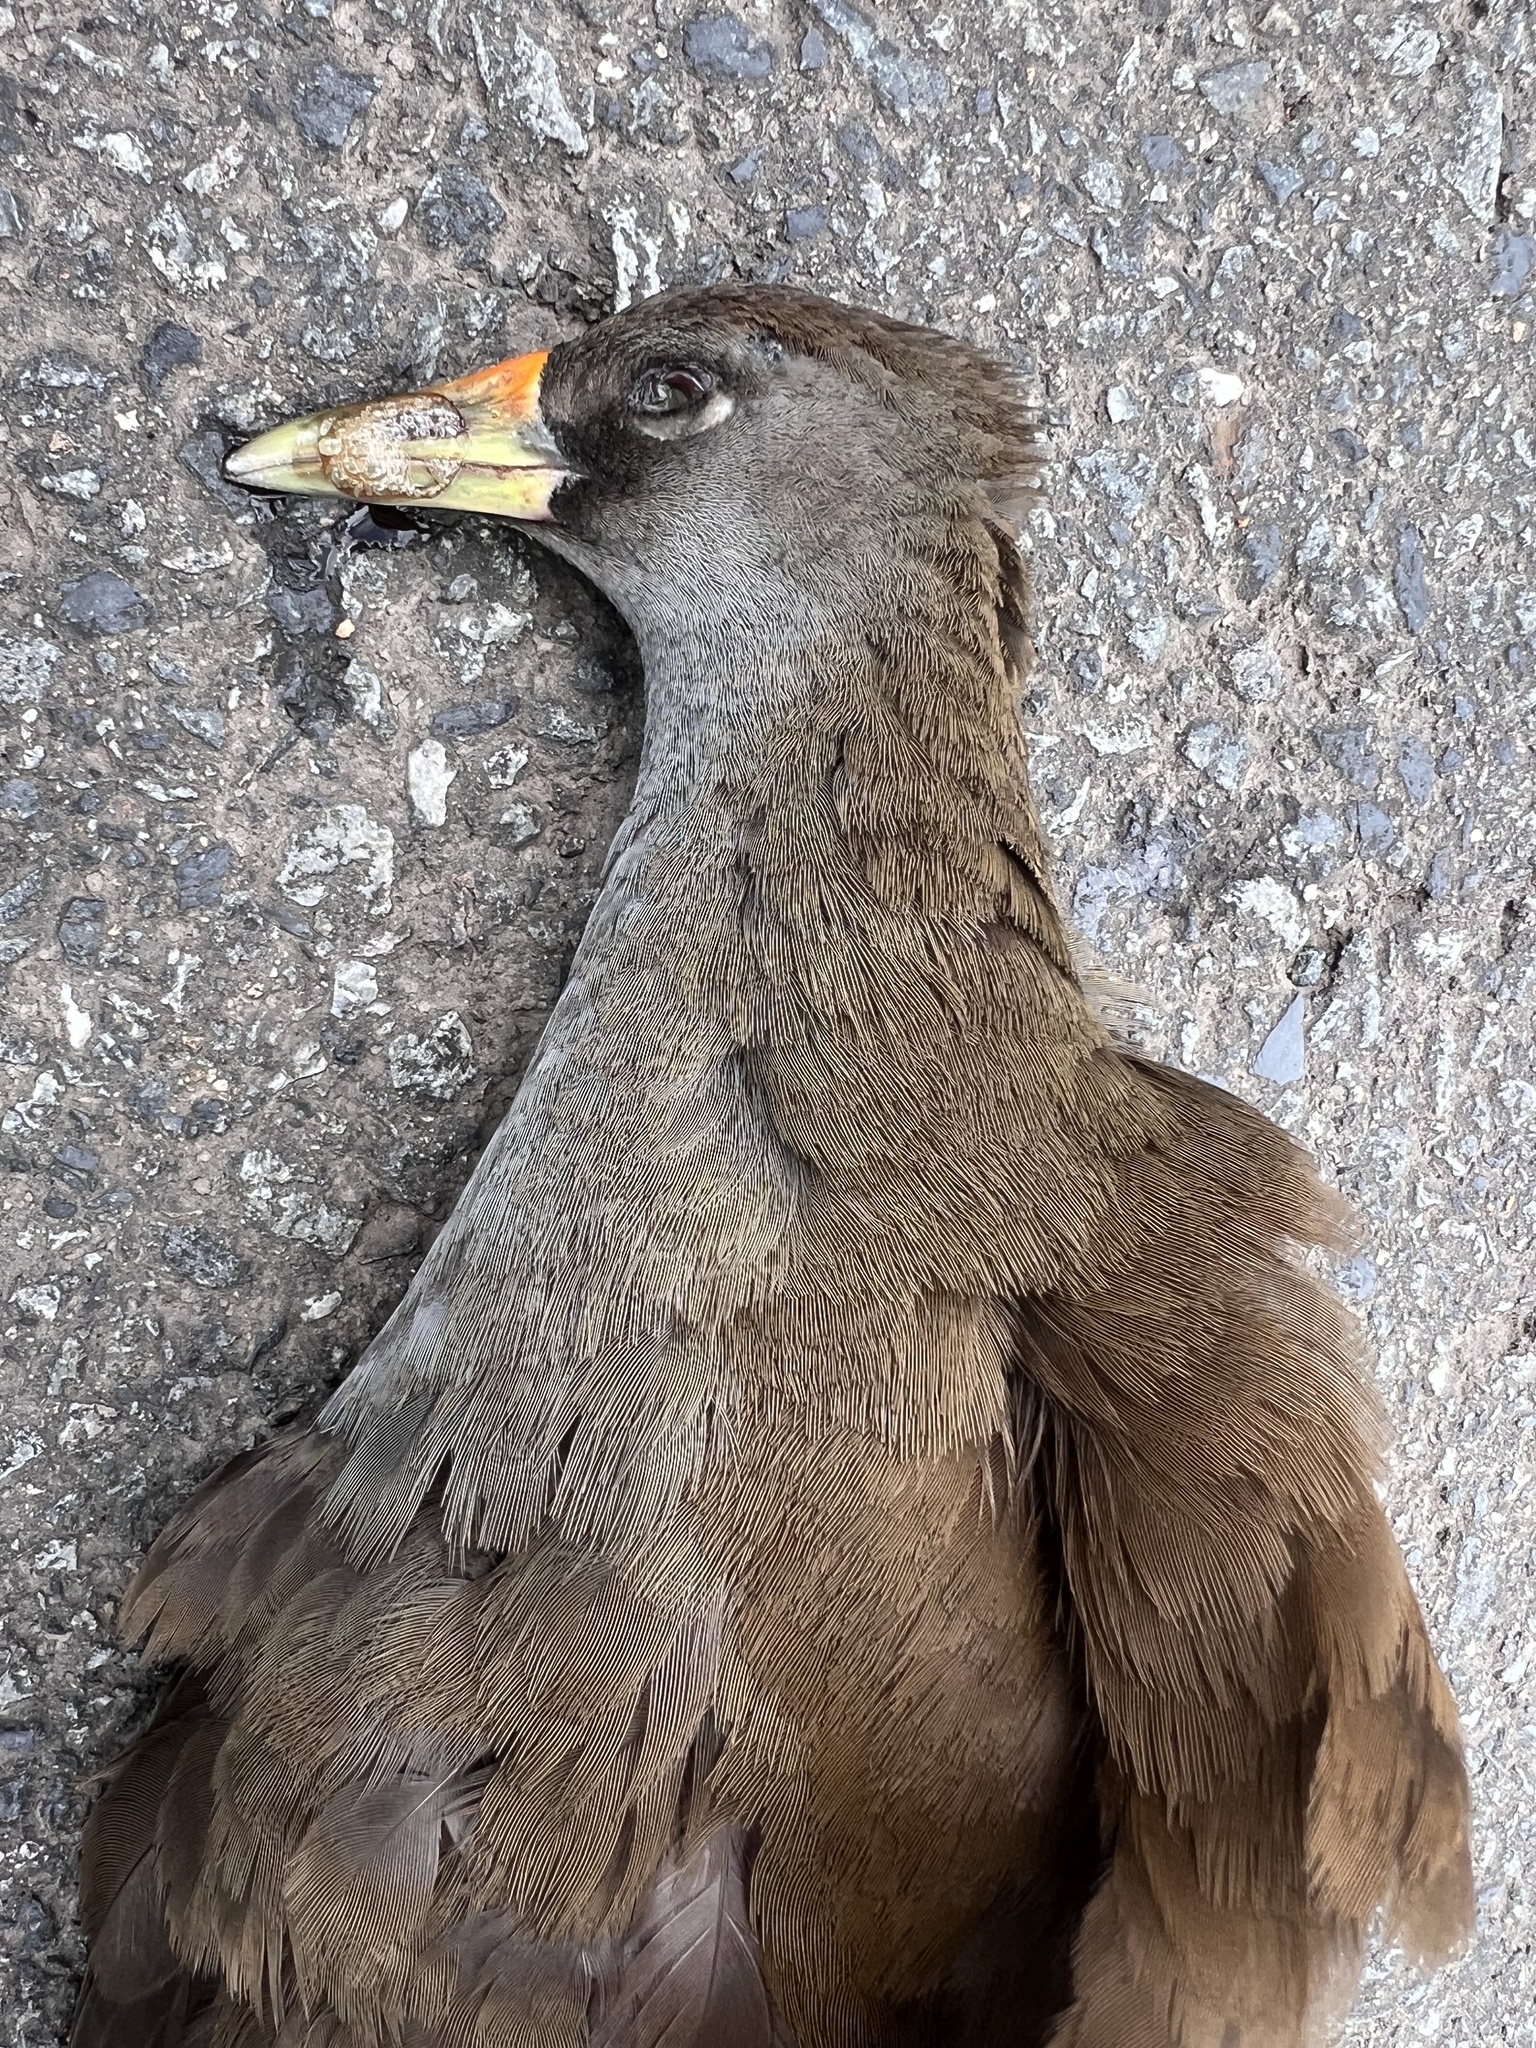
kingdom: Animalia
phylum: Chordata
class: Aves
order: Gruiformes
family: Rallidae
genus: Amaurornis
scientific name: Amaurornis olivacea
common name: Plain bush-hen
